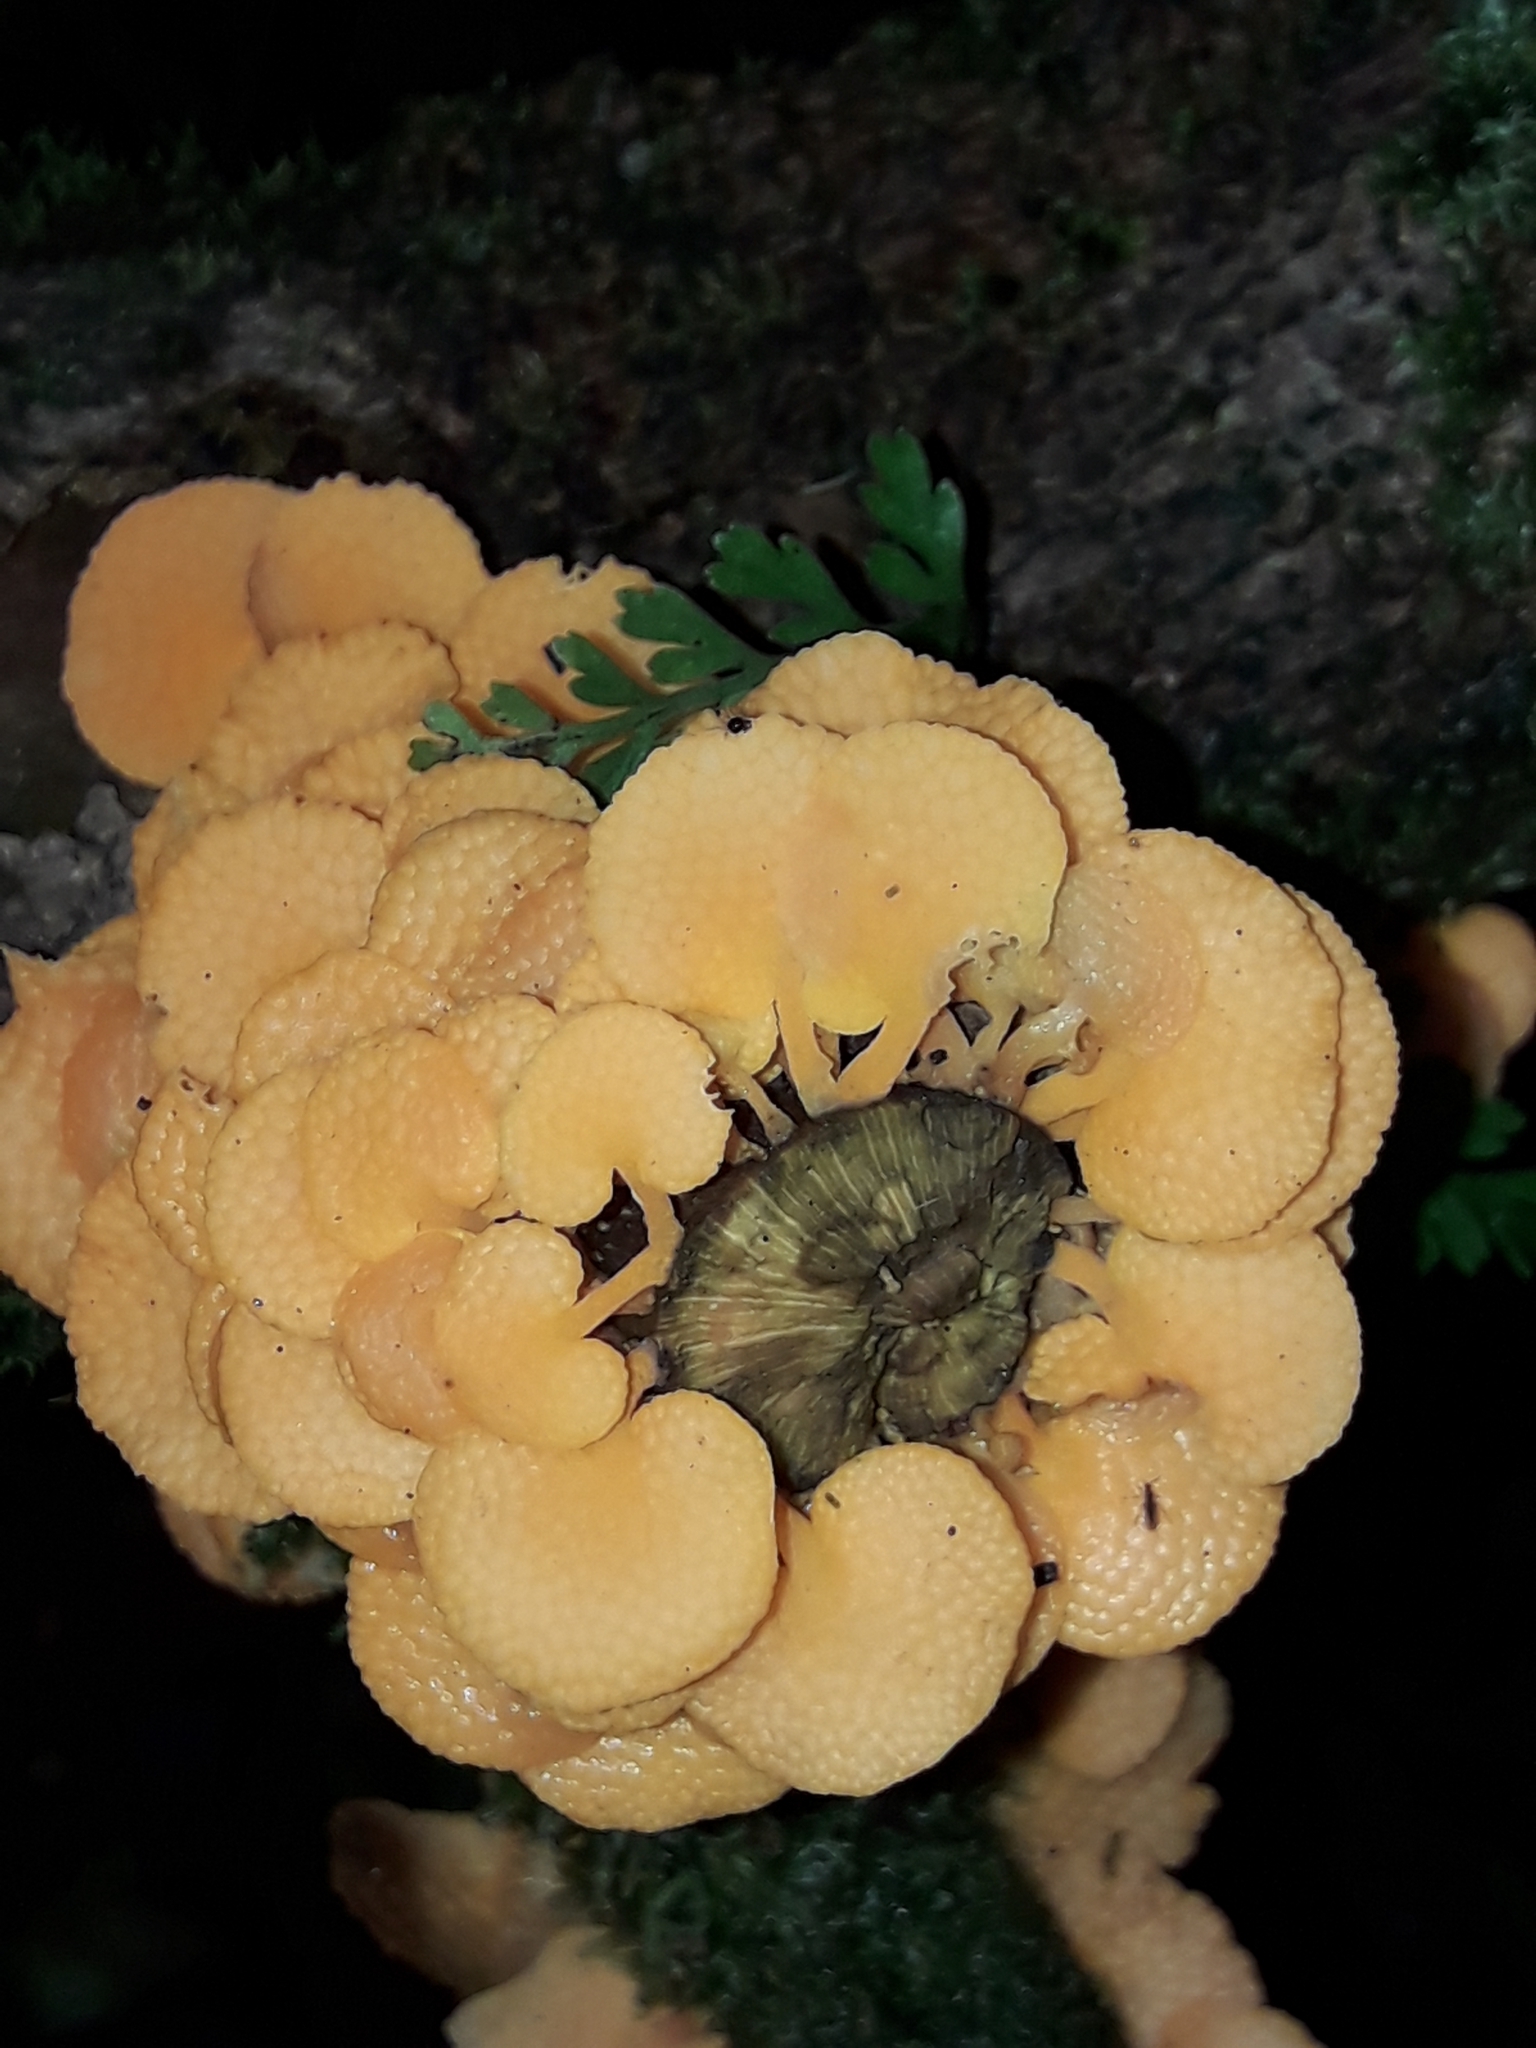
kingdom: Fungi
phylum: Basidiomycota
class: Agaricomycetes
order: Agaricales
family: Mycenaceae
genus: Favolaschia
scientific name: Favolaschia claudopus
